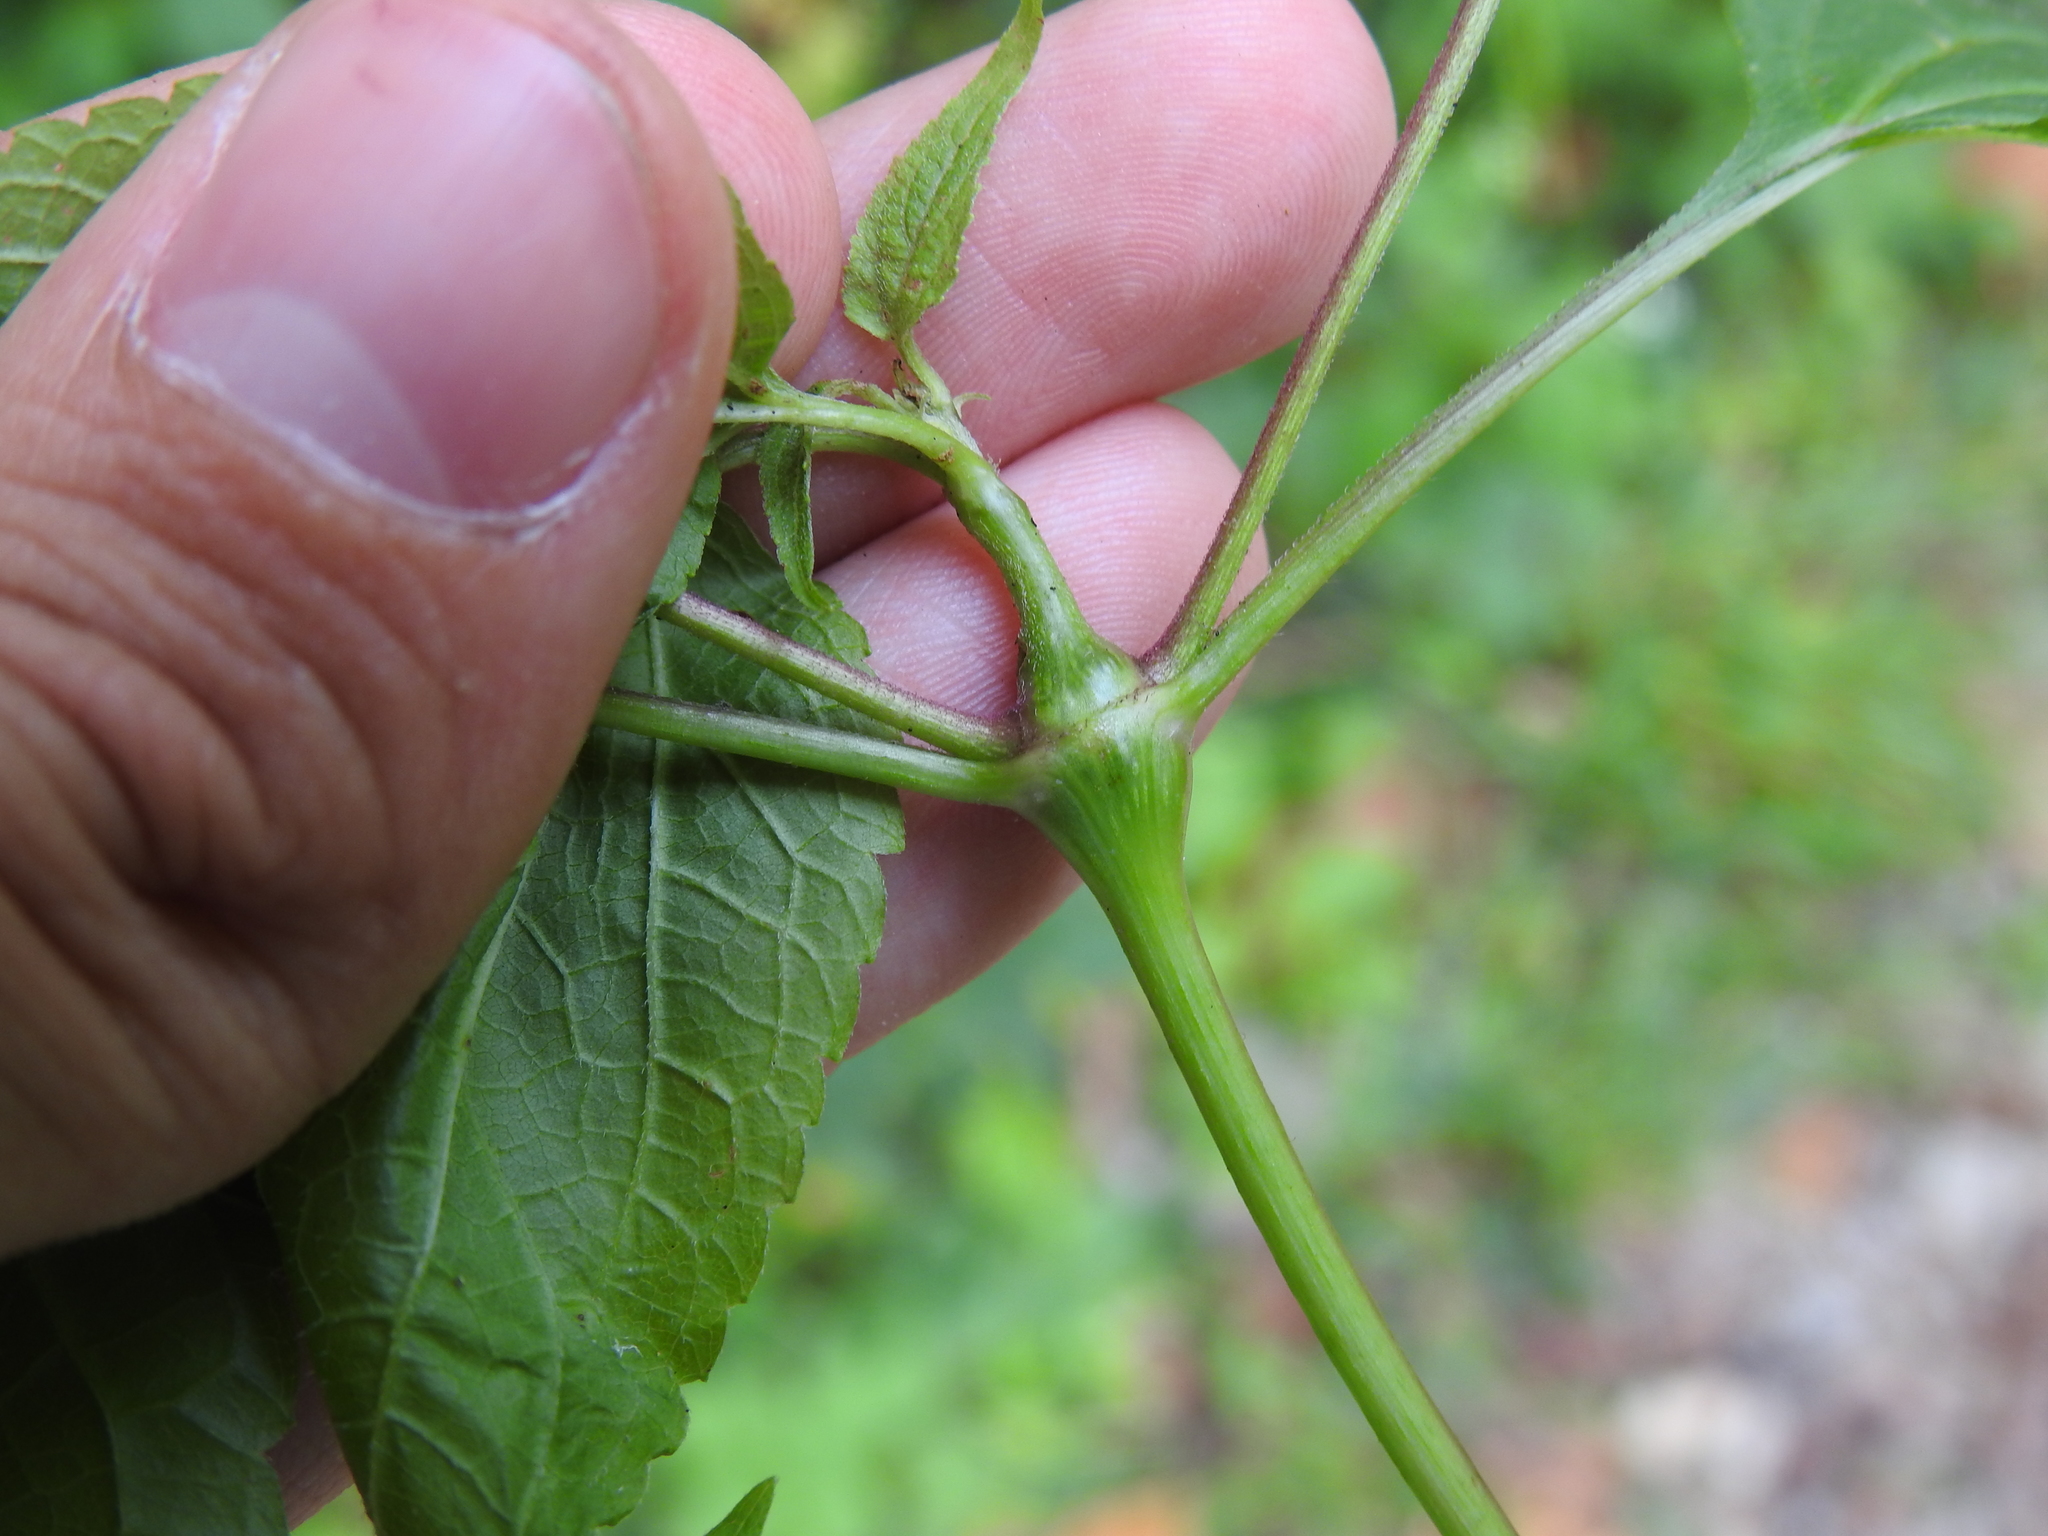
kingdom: Animalia
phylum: Arthropoda
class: Insecta
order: Diptera
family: Cecidomyiidae
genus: Neolasioptera
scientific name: Neolasioptera eupatorii
